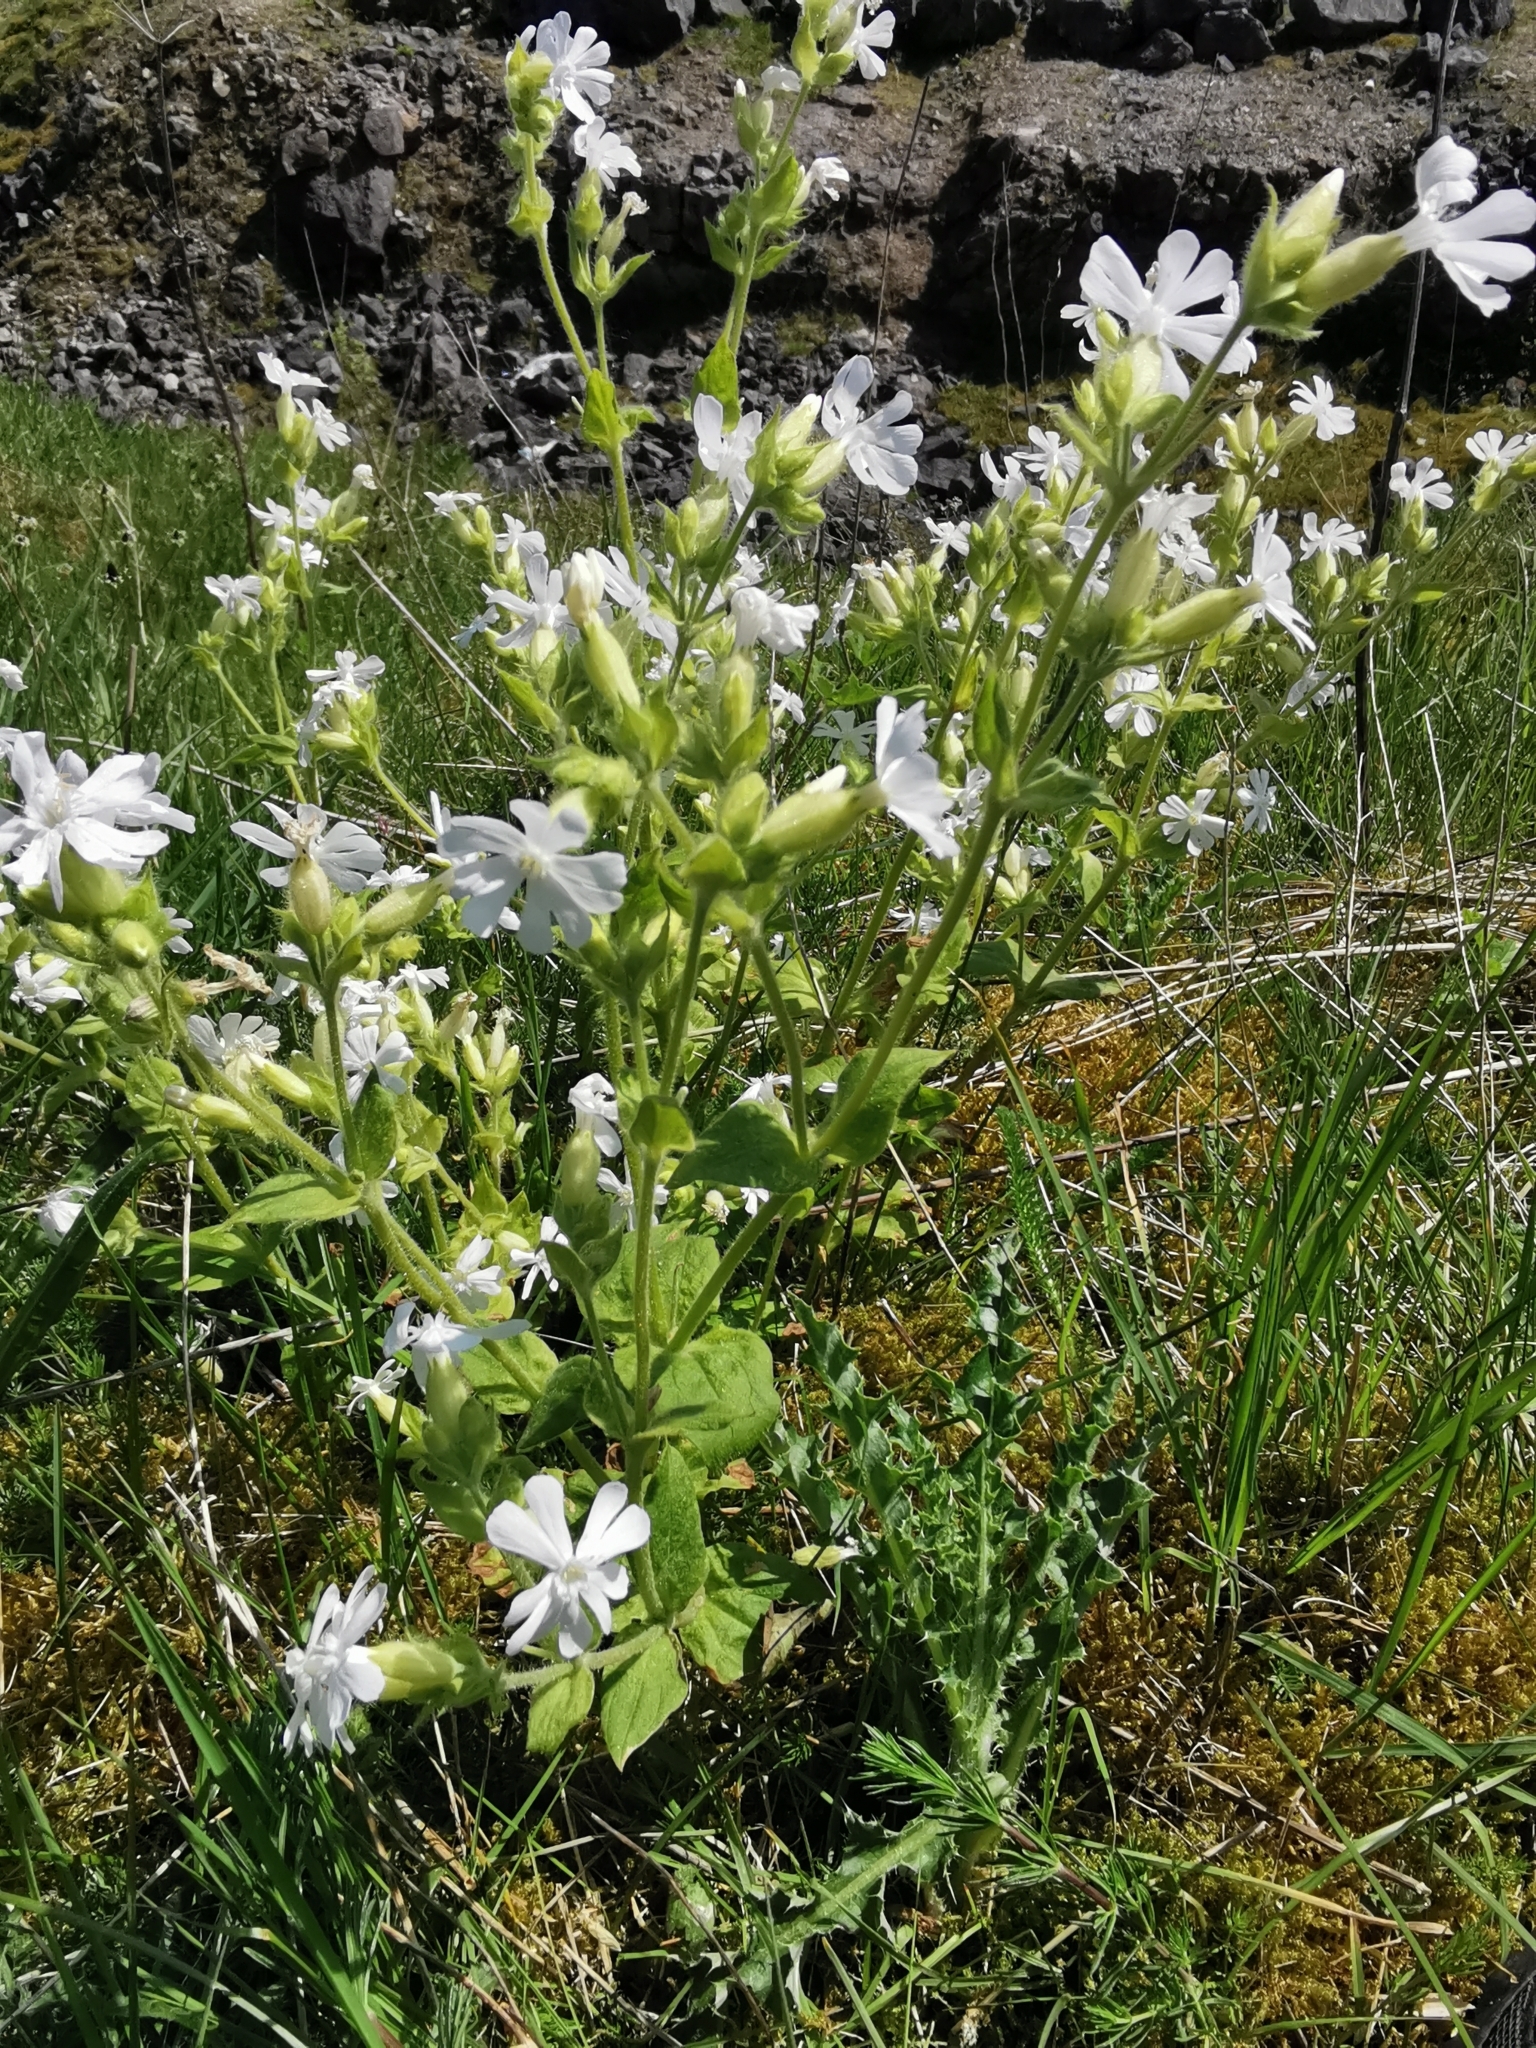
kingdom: Plantae
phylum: Tracheophyta
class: Magnoliopsida
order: Caryophyllales
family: Caryophyllaceae
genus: Silene
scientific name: Silene dioica
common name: Red campion
